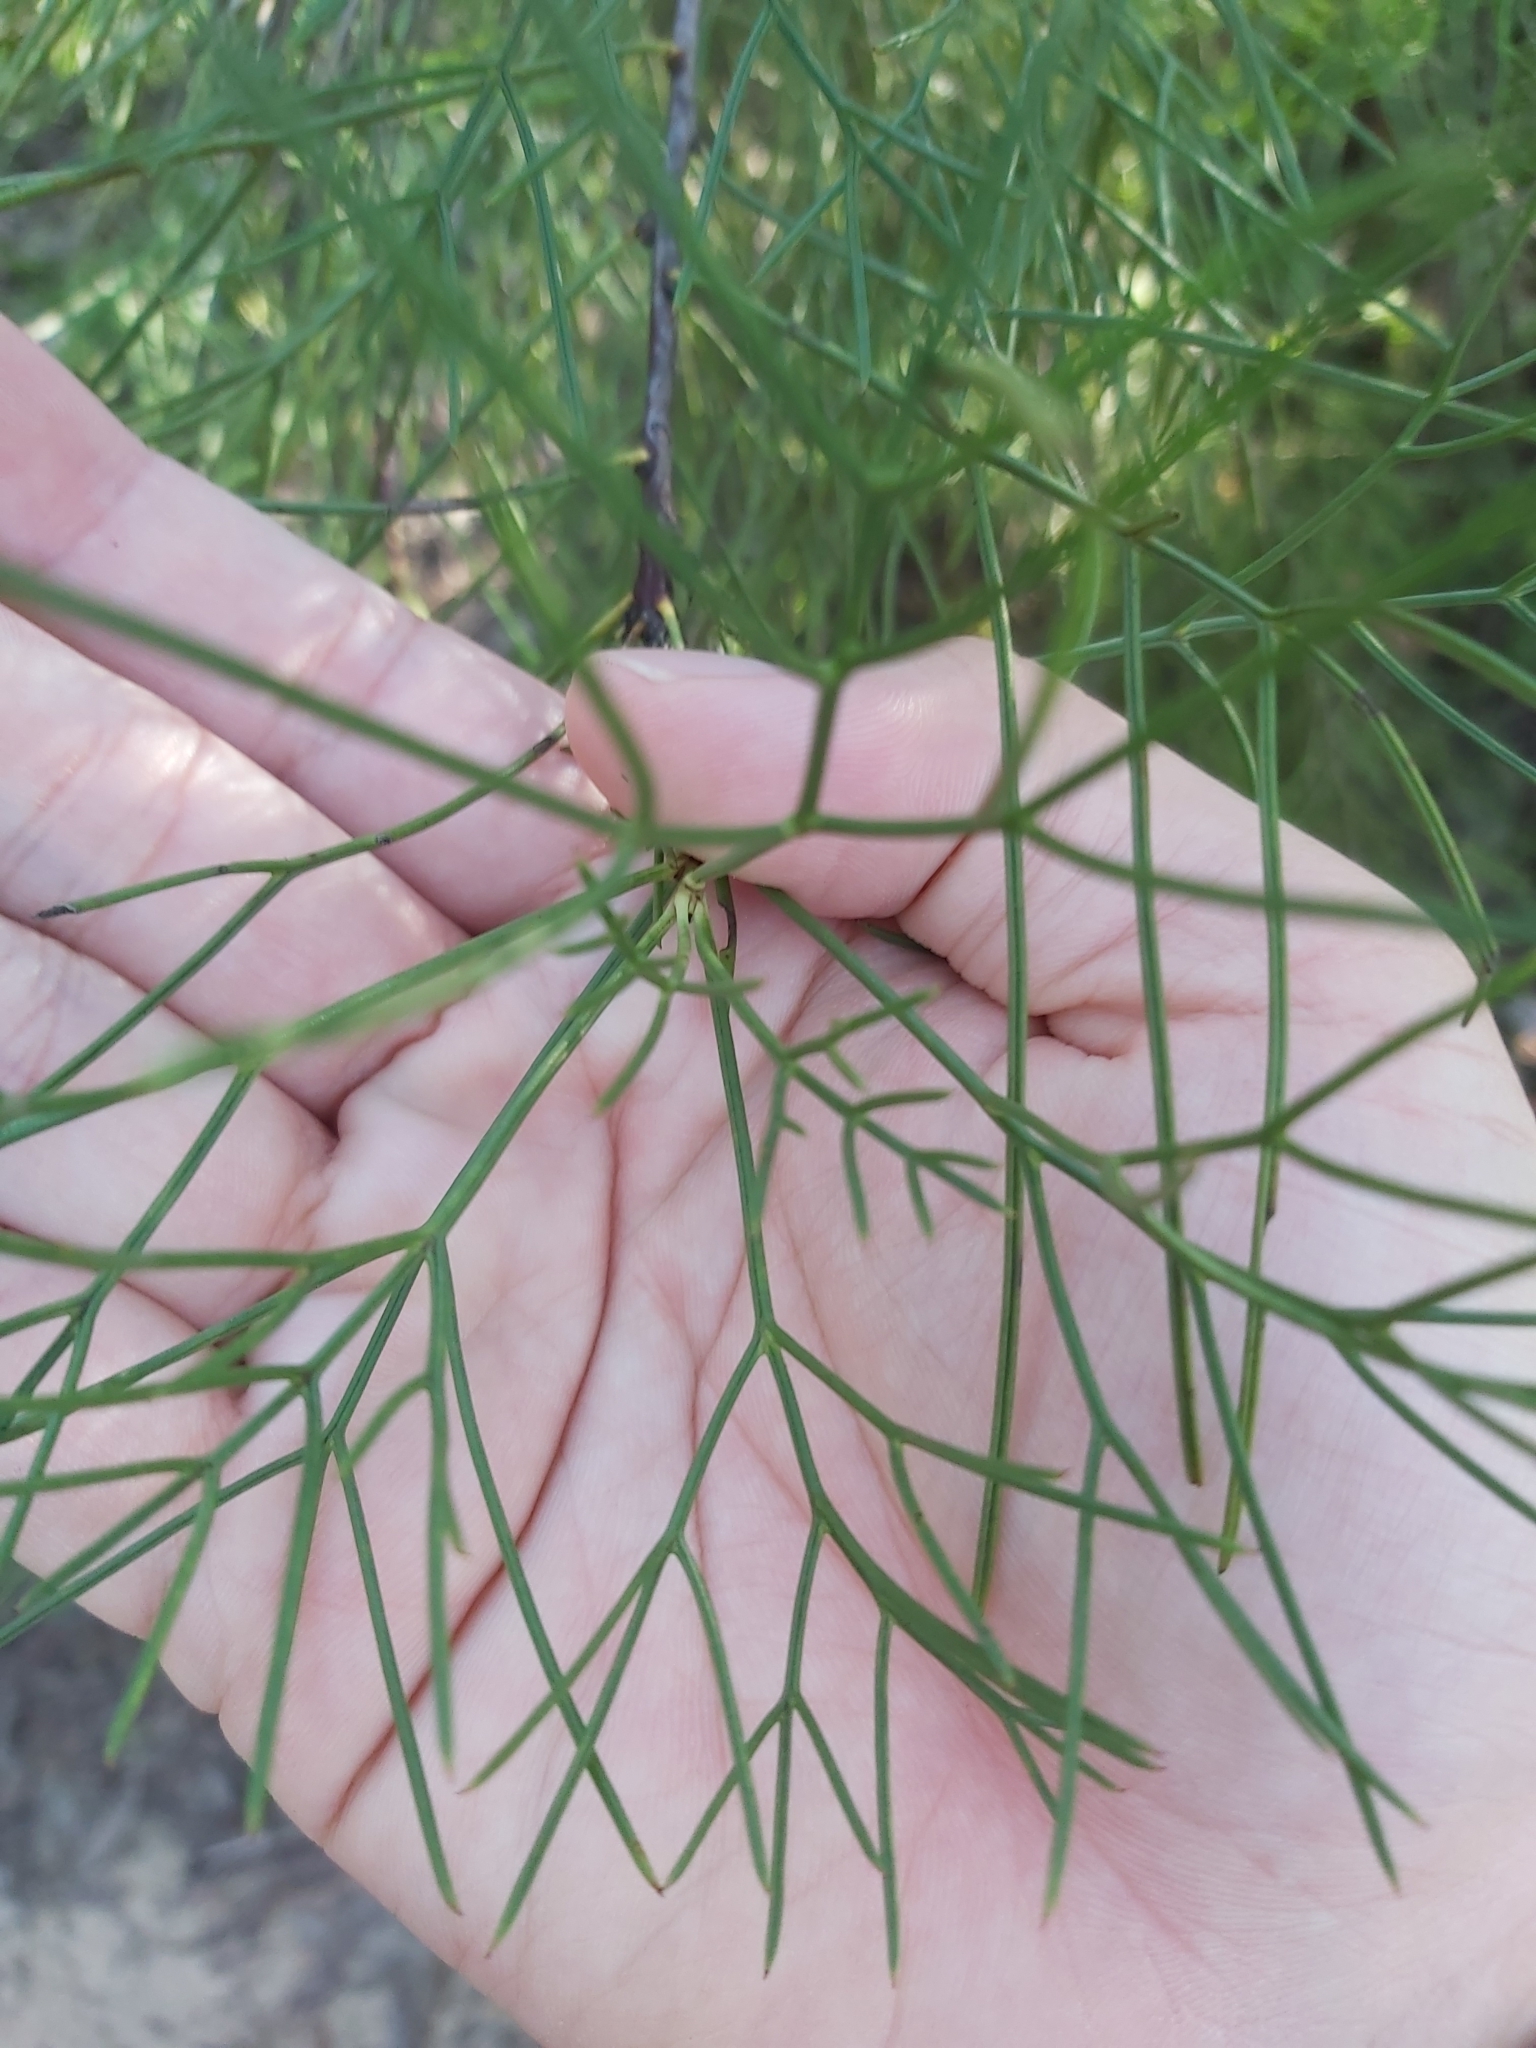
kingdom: Plantae
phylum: Tracheophyta
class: Magnoliopsida
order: Proteales
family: Proteaceae
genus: Isopogon
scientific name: Isopogon anethifolius
